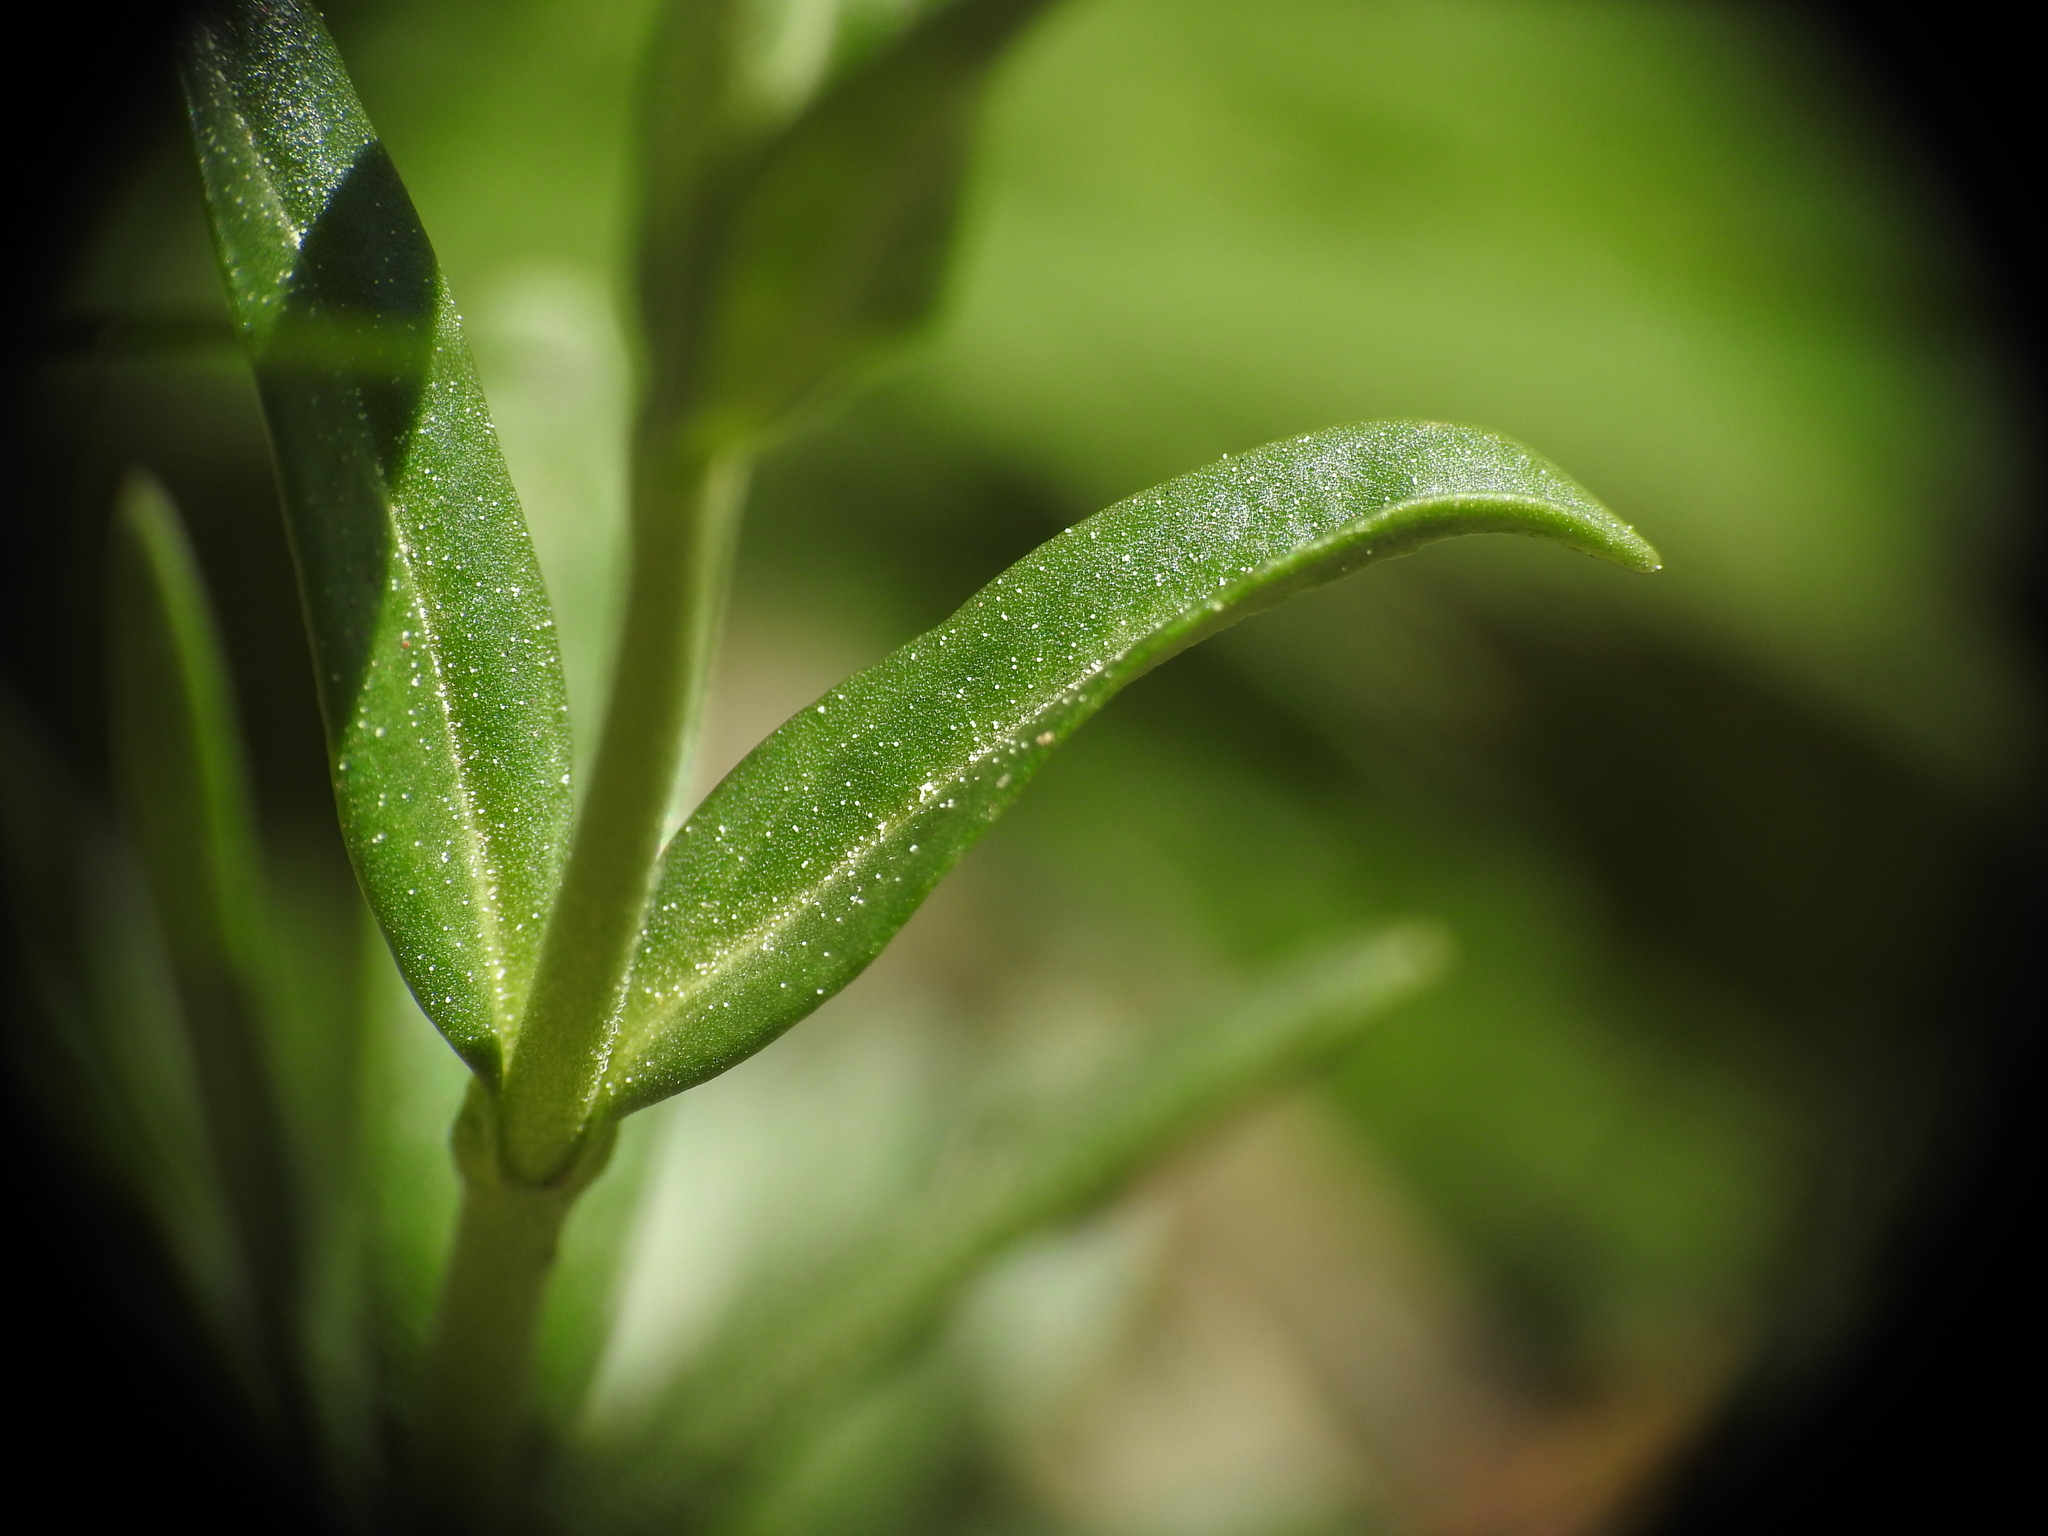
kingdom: Plantae
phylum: Tracheophyta
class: Magnoliopsida
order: Lamiales
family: Plantaginaceae
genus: Veronica
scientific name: Veronica fruticans
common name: Rock speedwell
